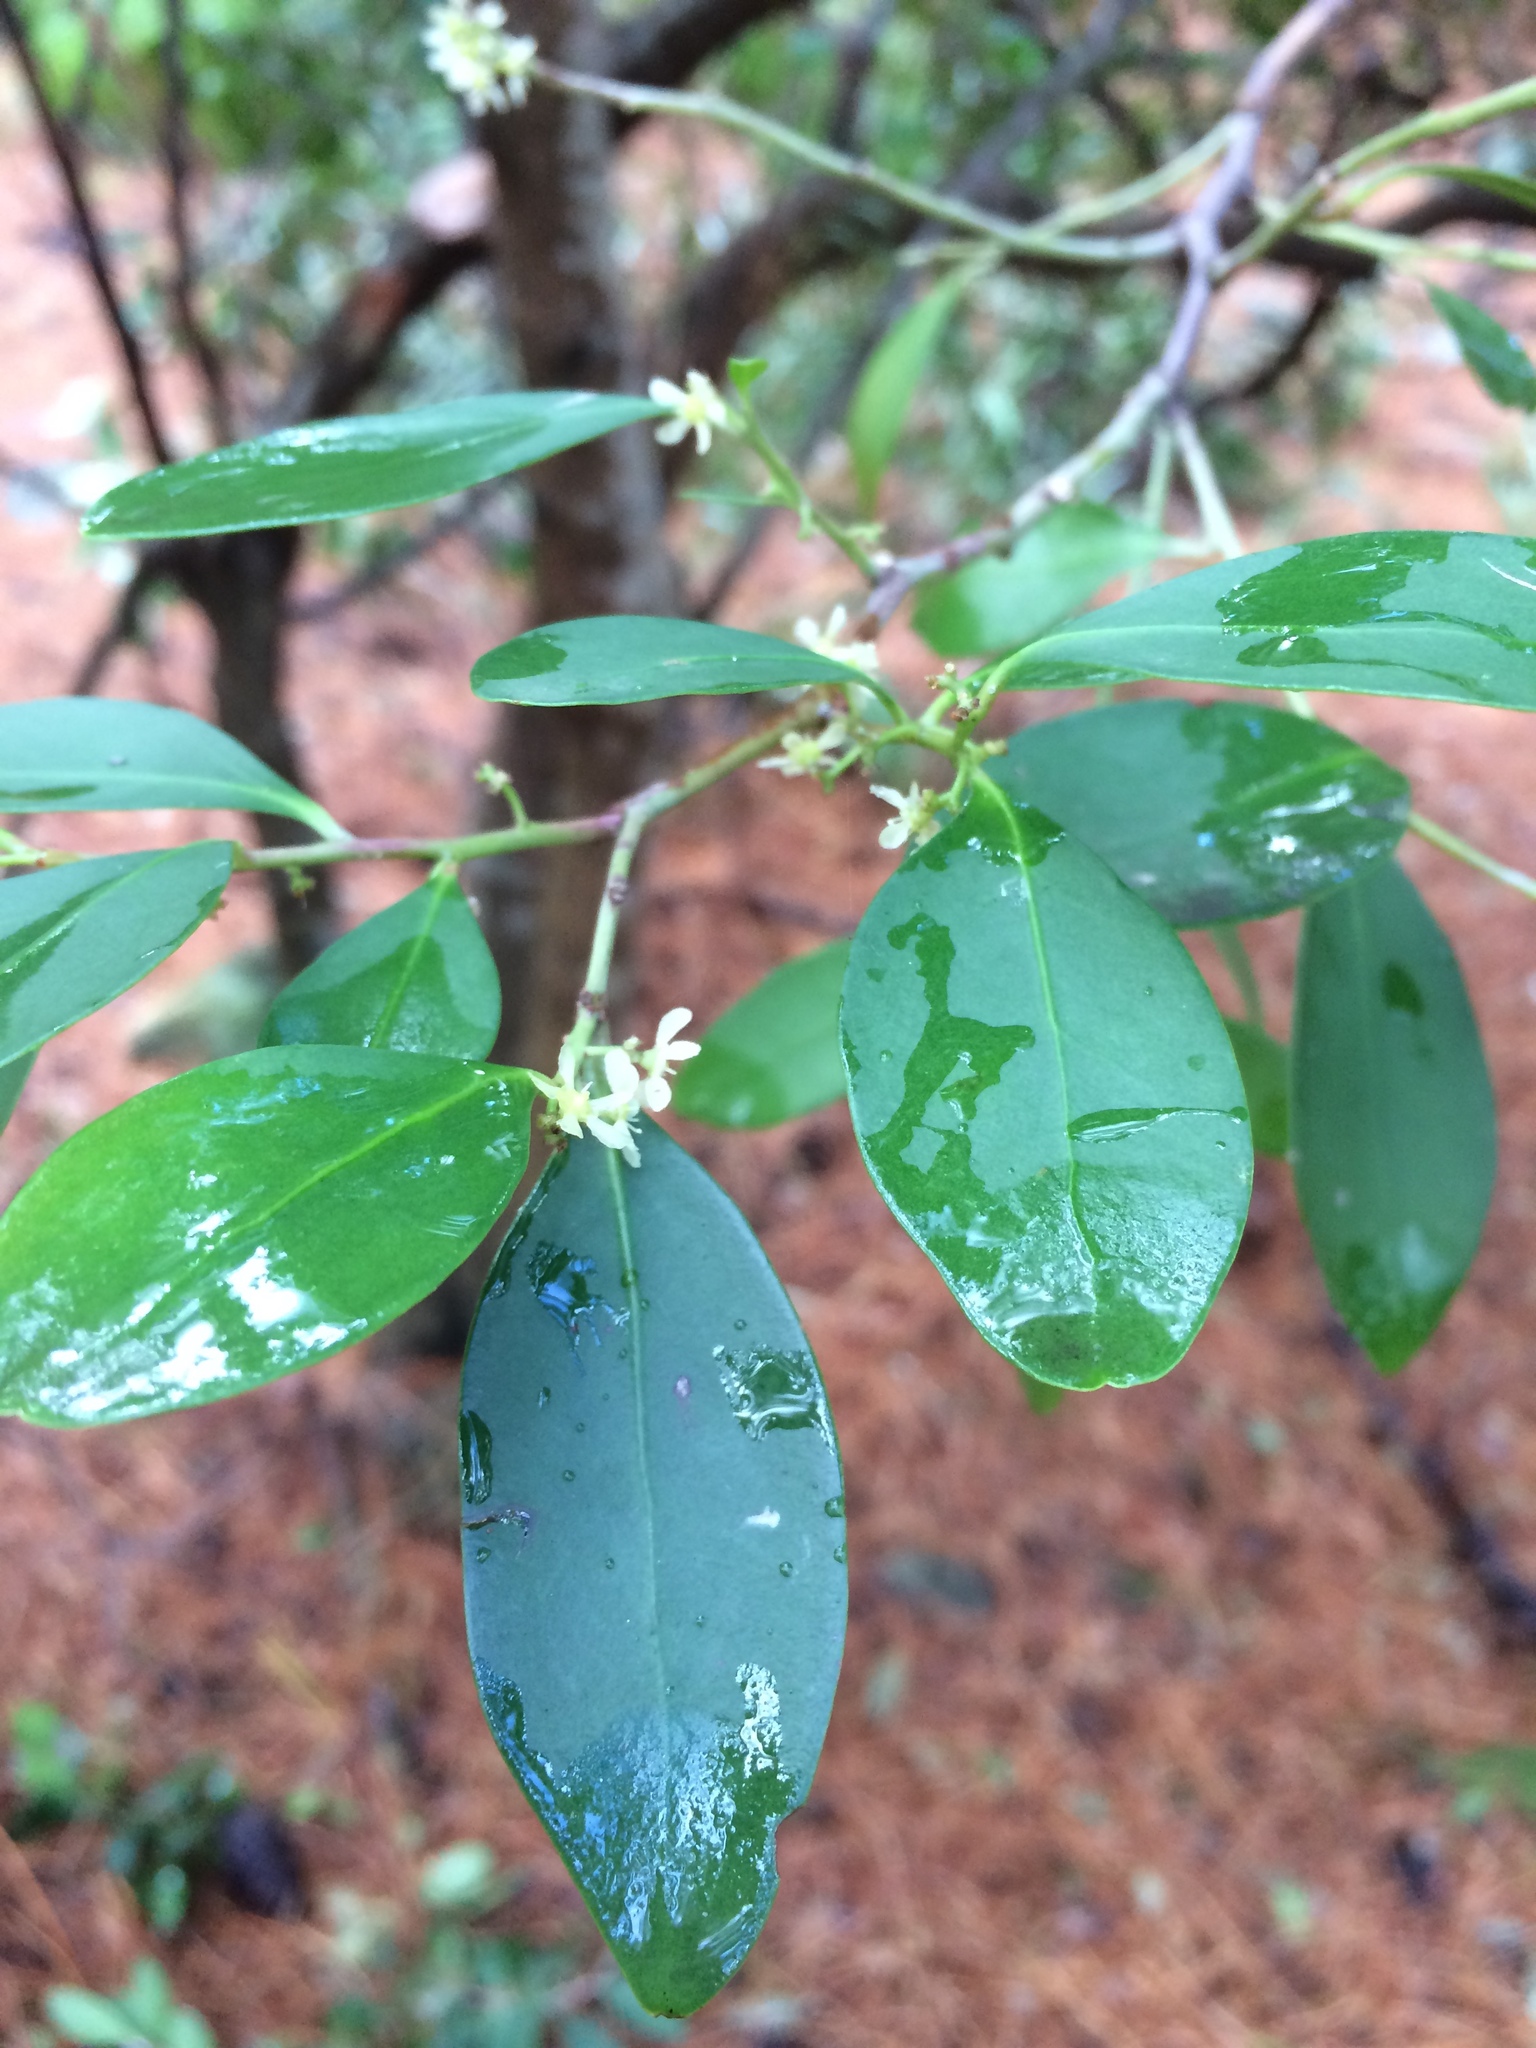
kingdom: Plantae
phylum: Tracheophyta
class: Magnoliopsida
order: Celastrales
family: Celastraceae
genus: Pterocelastrus
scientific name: Pterocelastrus tricuspidatus
